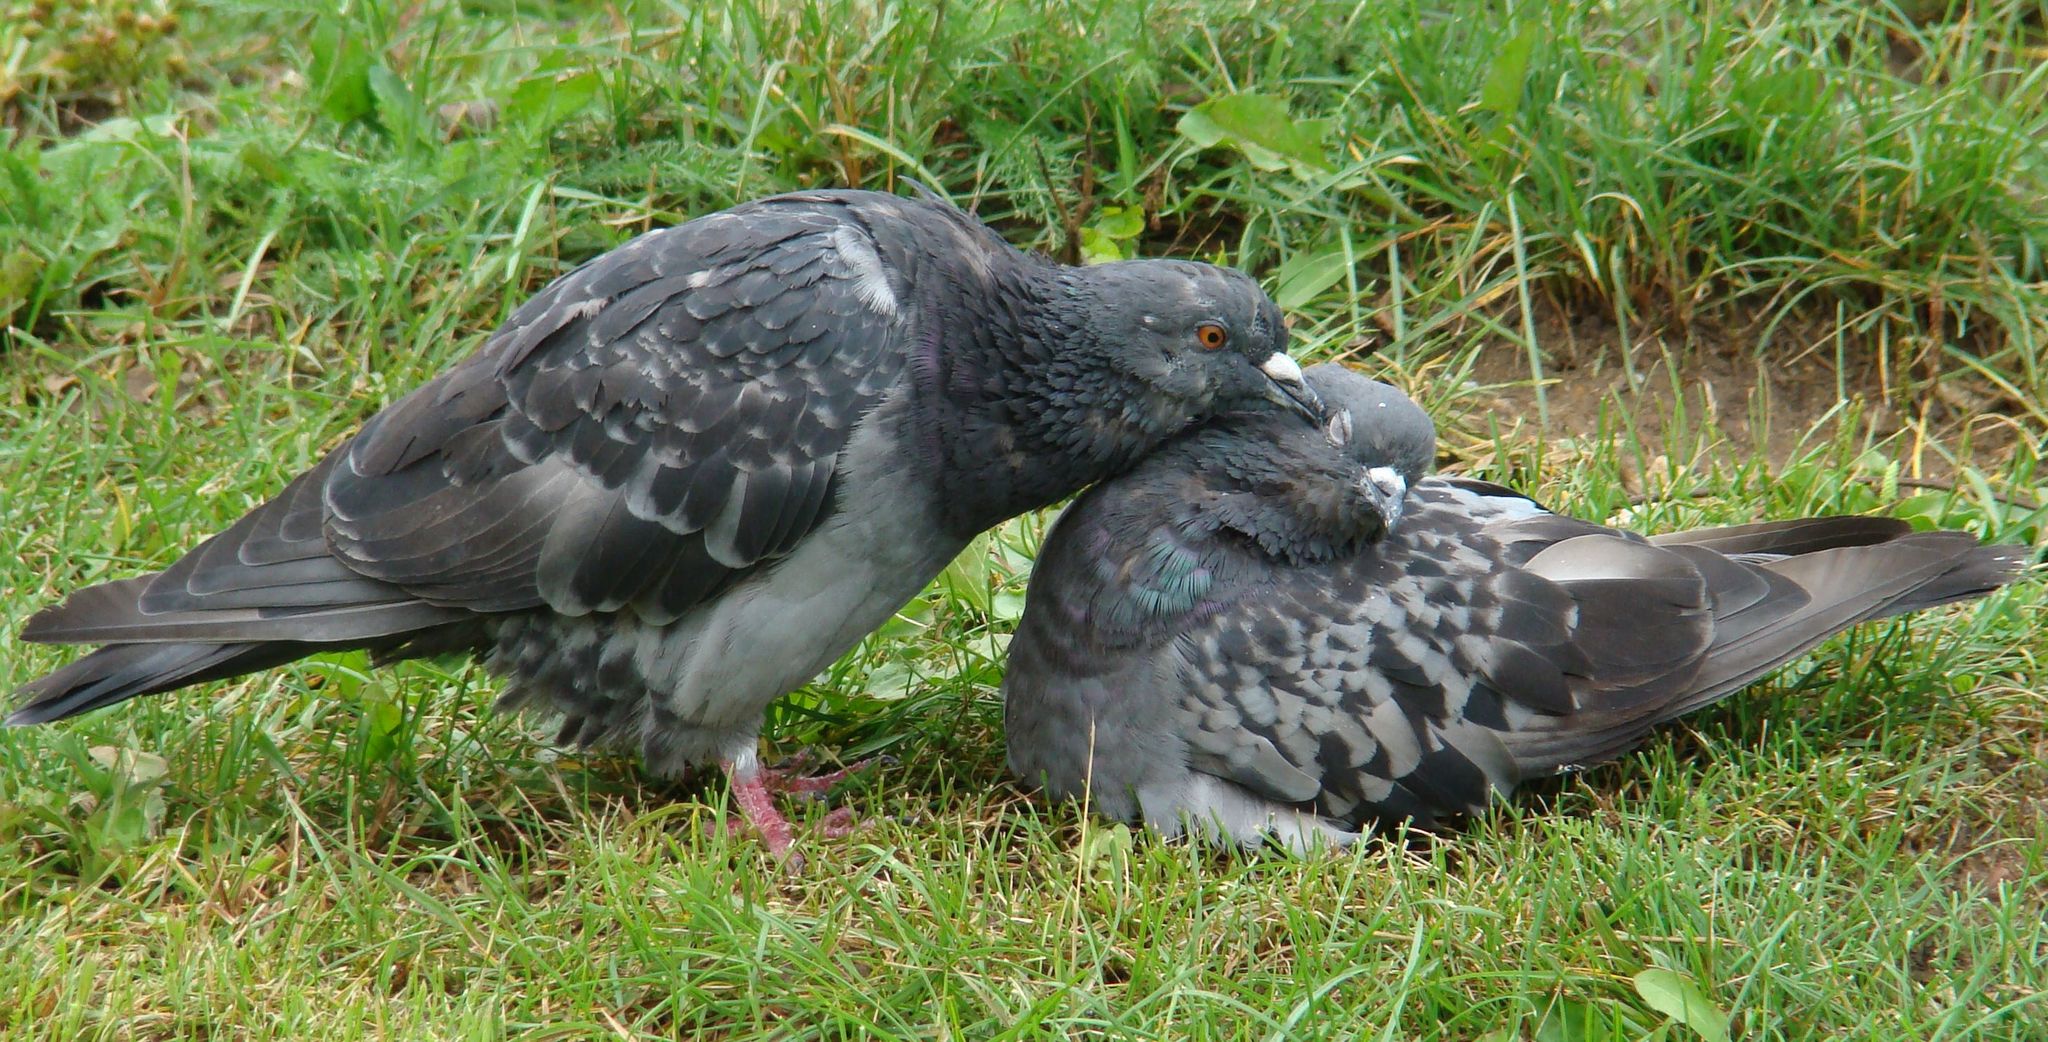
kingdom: Animalia
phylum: Chordata
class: Aves
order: Columbiformes
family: Columbidae
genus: Columba
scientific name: Columba livia
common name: Rock pigeon
